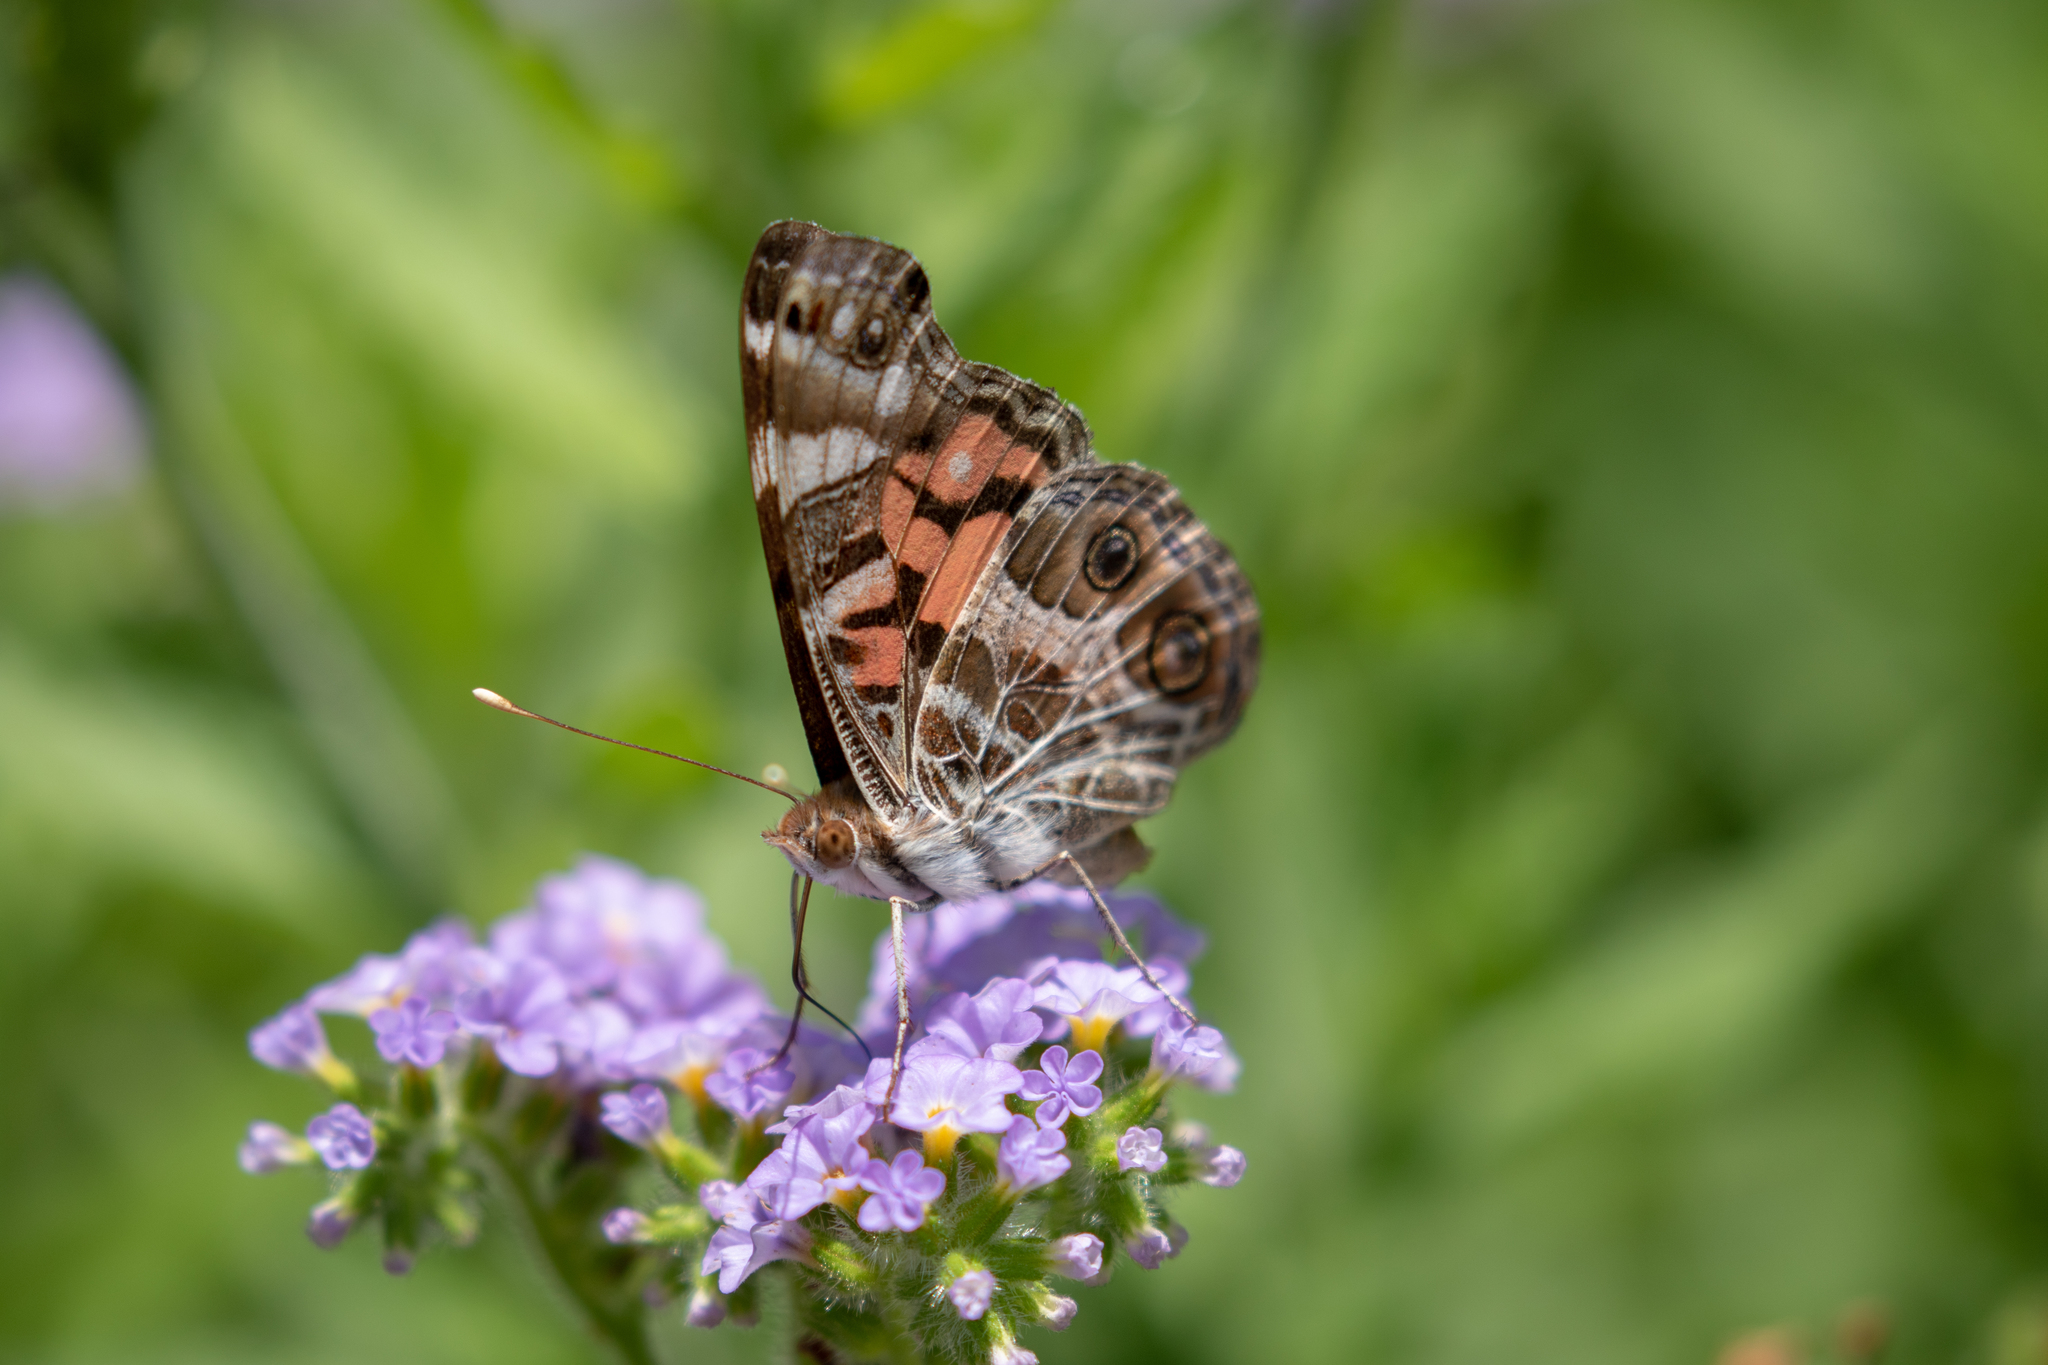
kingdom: Animalia
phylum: Arthropoda
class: Insecta
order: Lepidoptera
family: Nymphalidae
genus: Vanessa
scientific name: Vanessa virginiensis
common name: American lady
